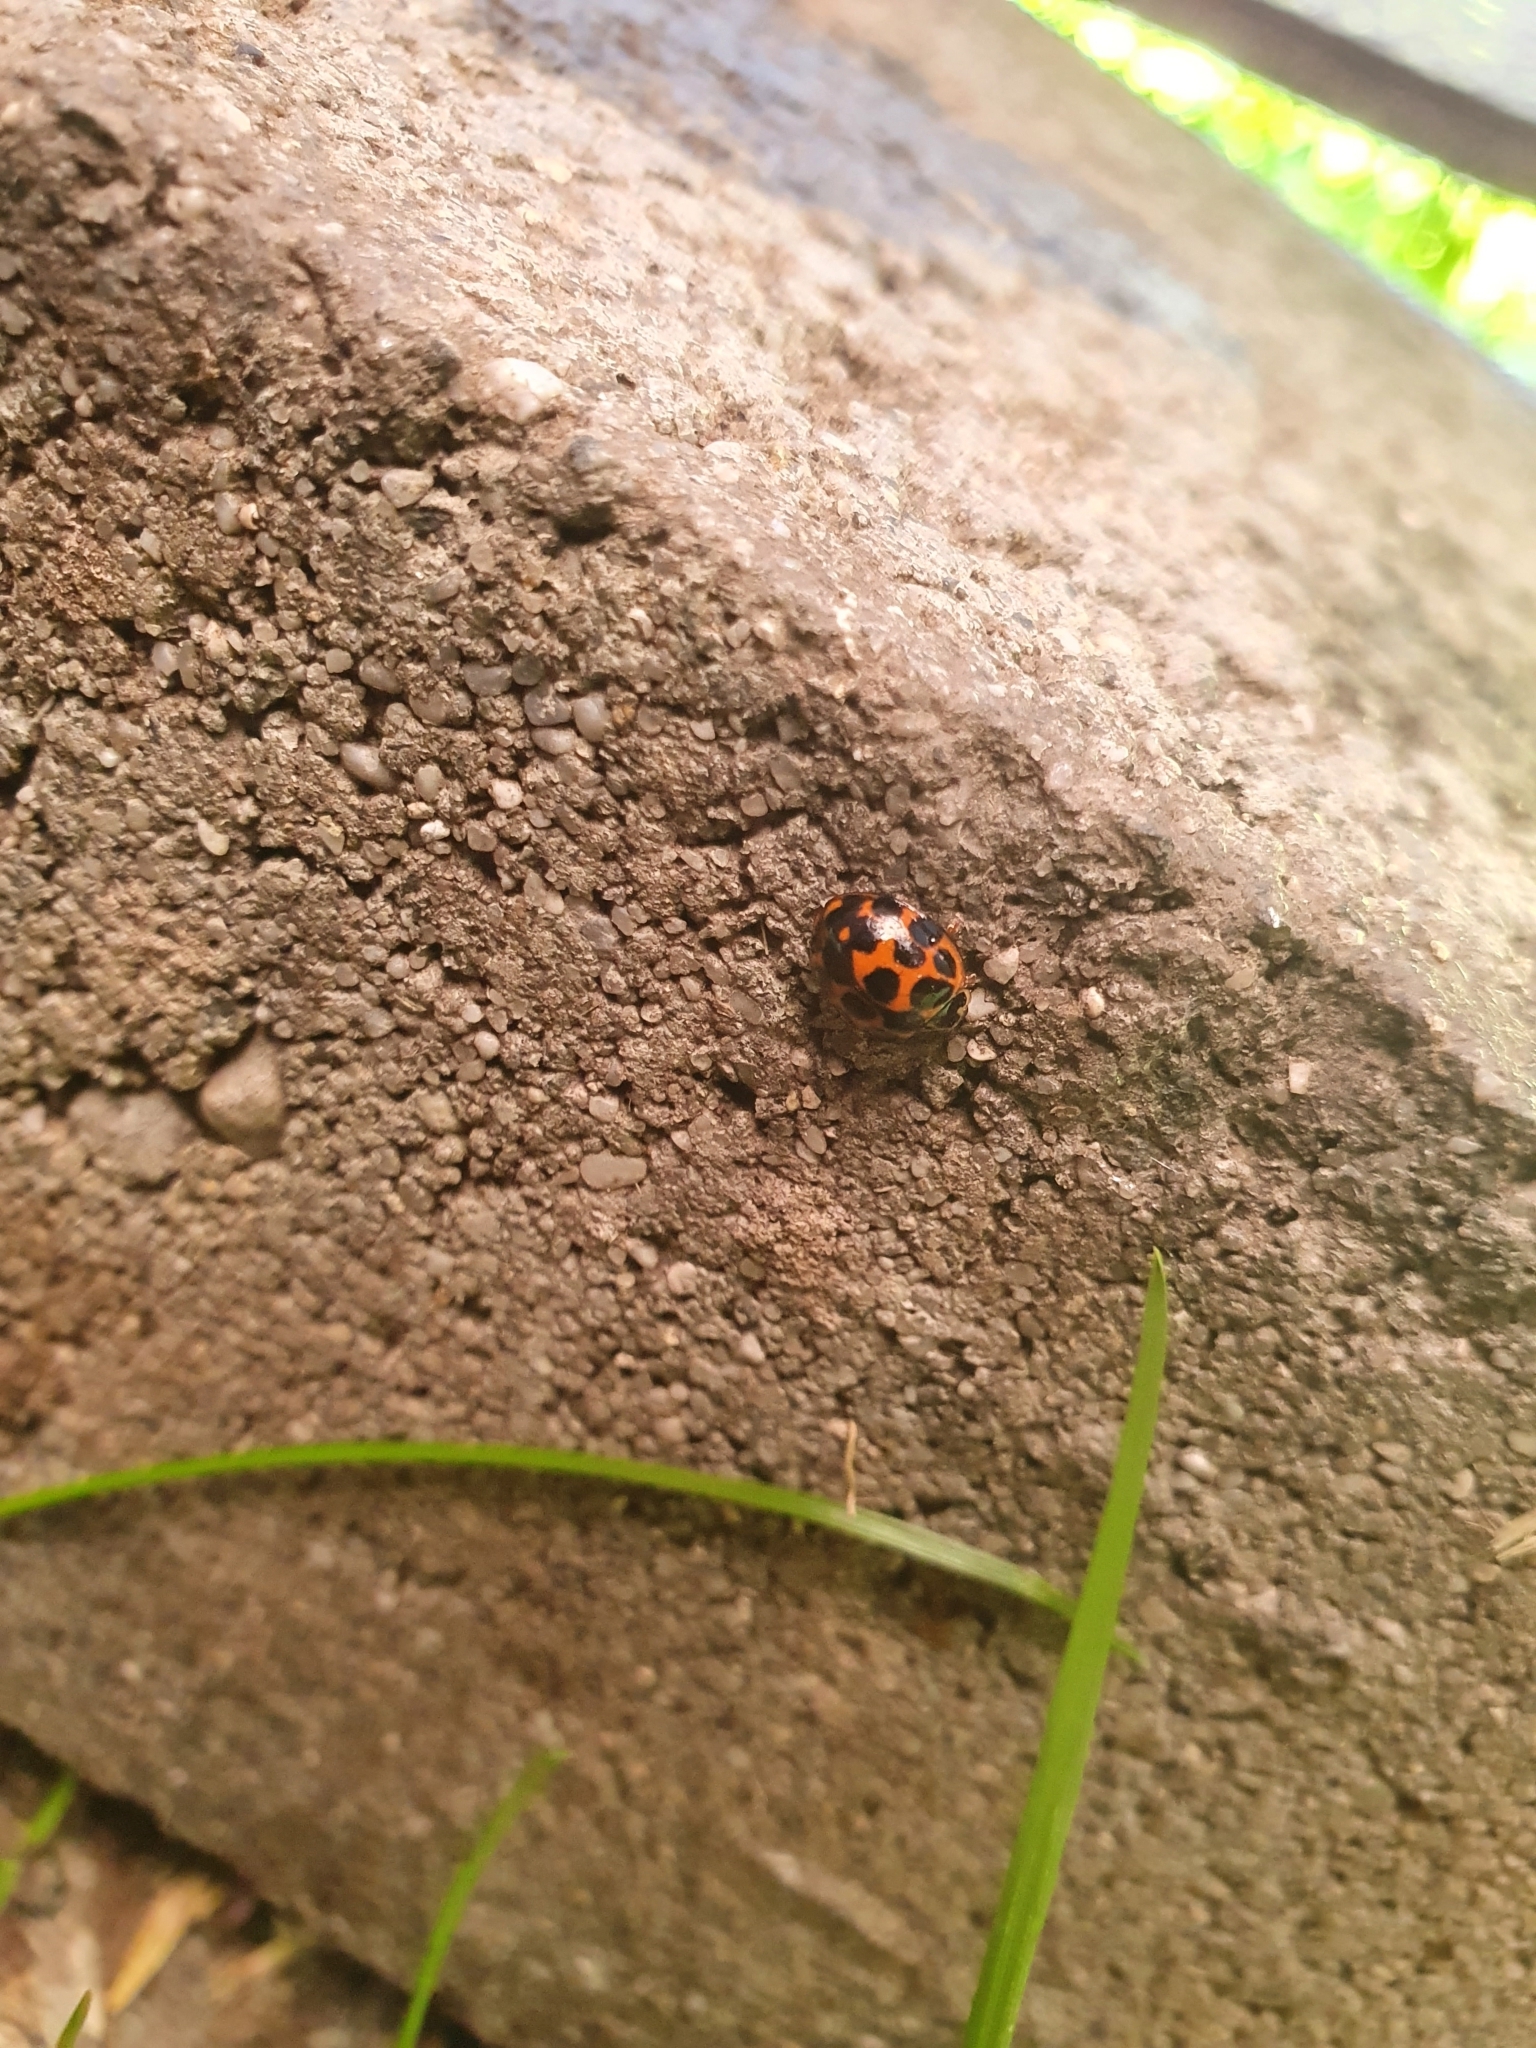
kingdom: Animalia
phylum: Arthropoda
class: Insecta
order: Coleoptera
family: Coccinellidae
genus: Harmonia
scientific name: Harmonia conformis
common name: Common spotted ladybird beetle
